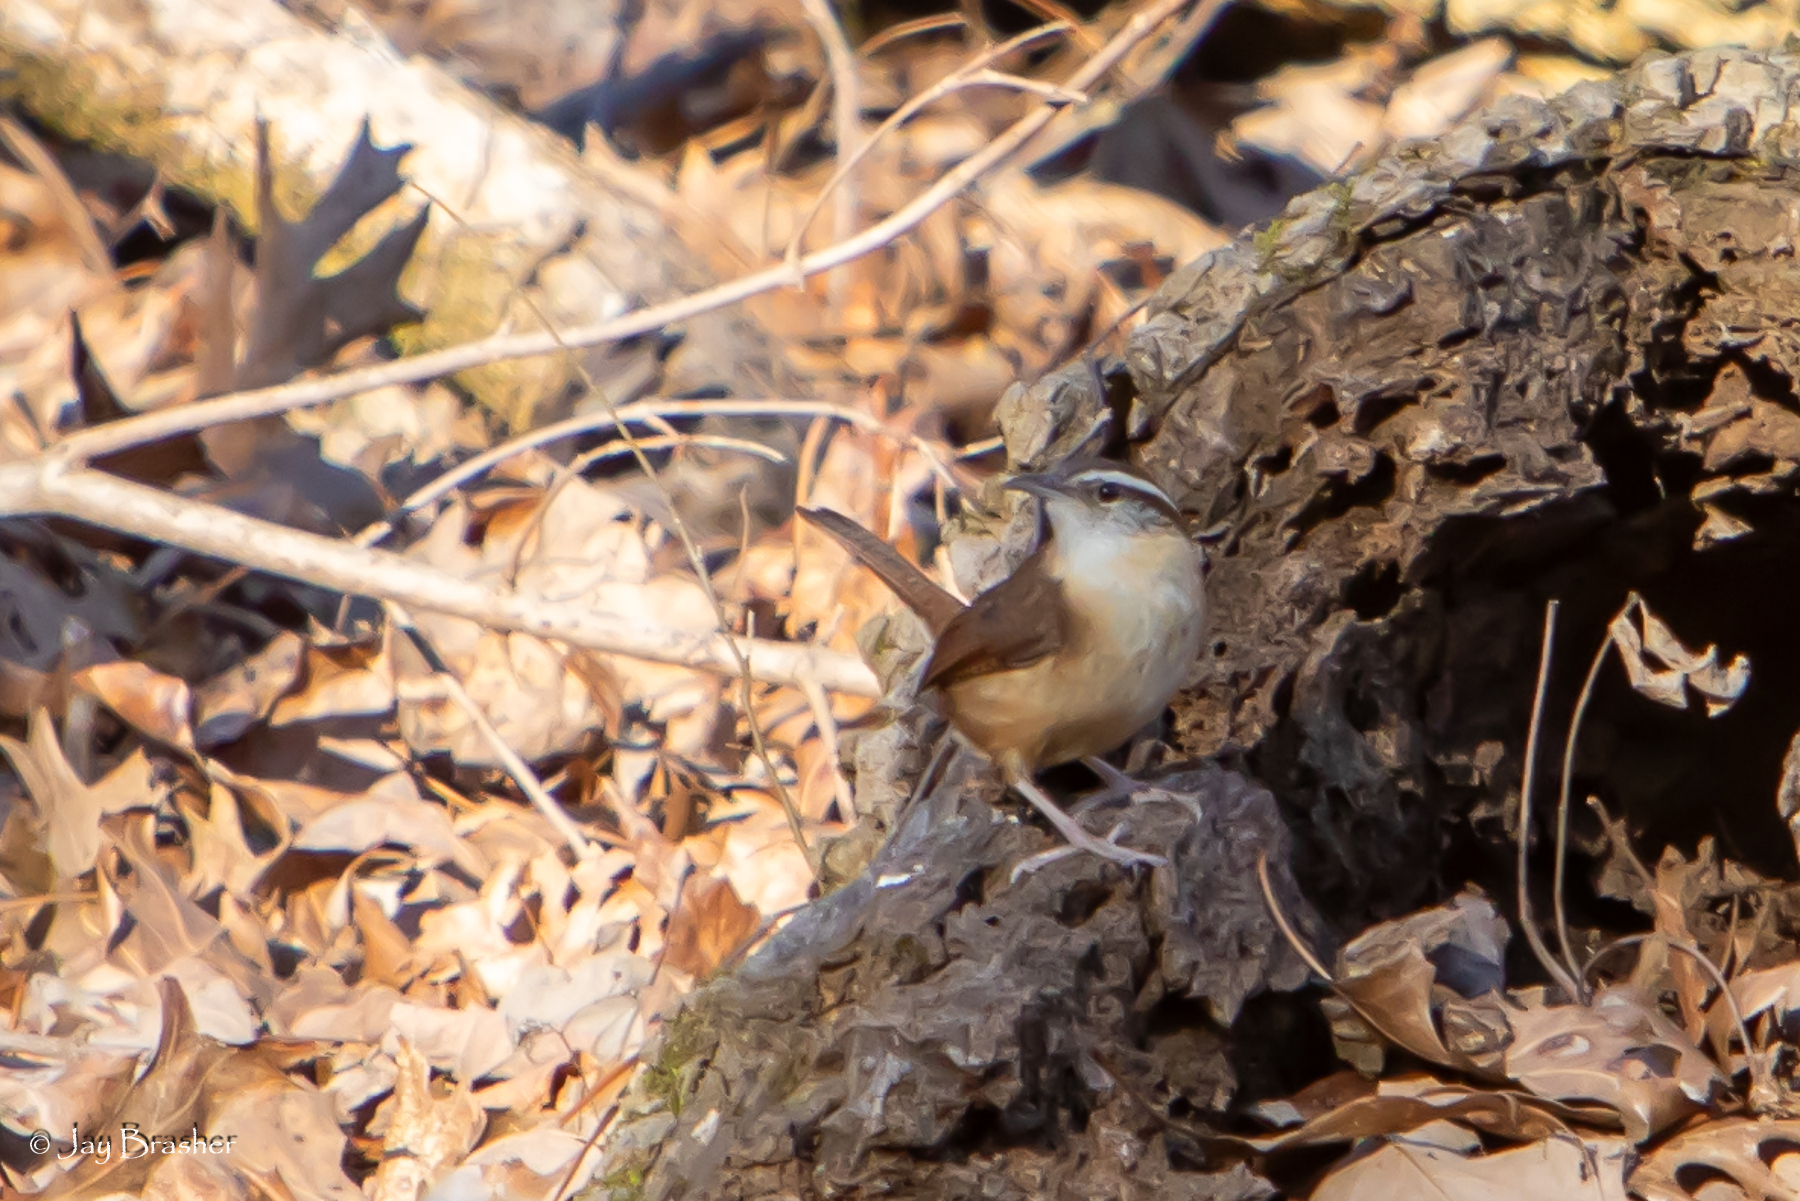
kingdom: Animalia
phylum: Chordata
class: Aves
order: Passeriformes
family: Troglodytidae
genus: Thryothorus
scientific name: Thryothorus ludovicianus
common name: Carolina wren
